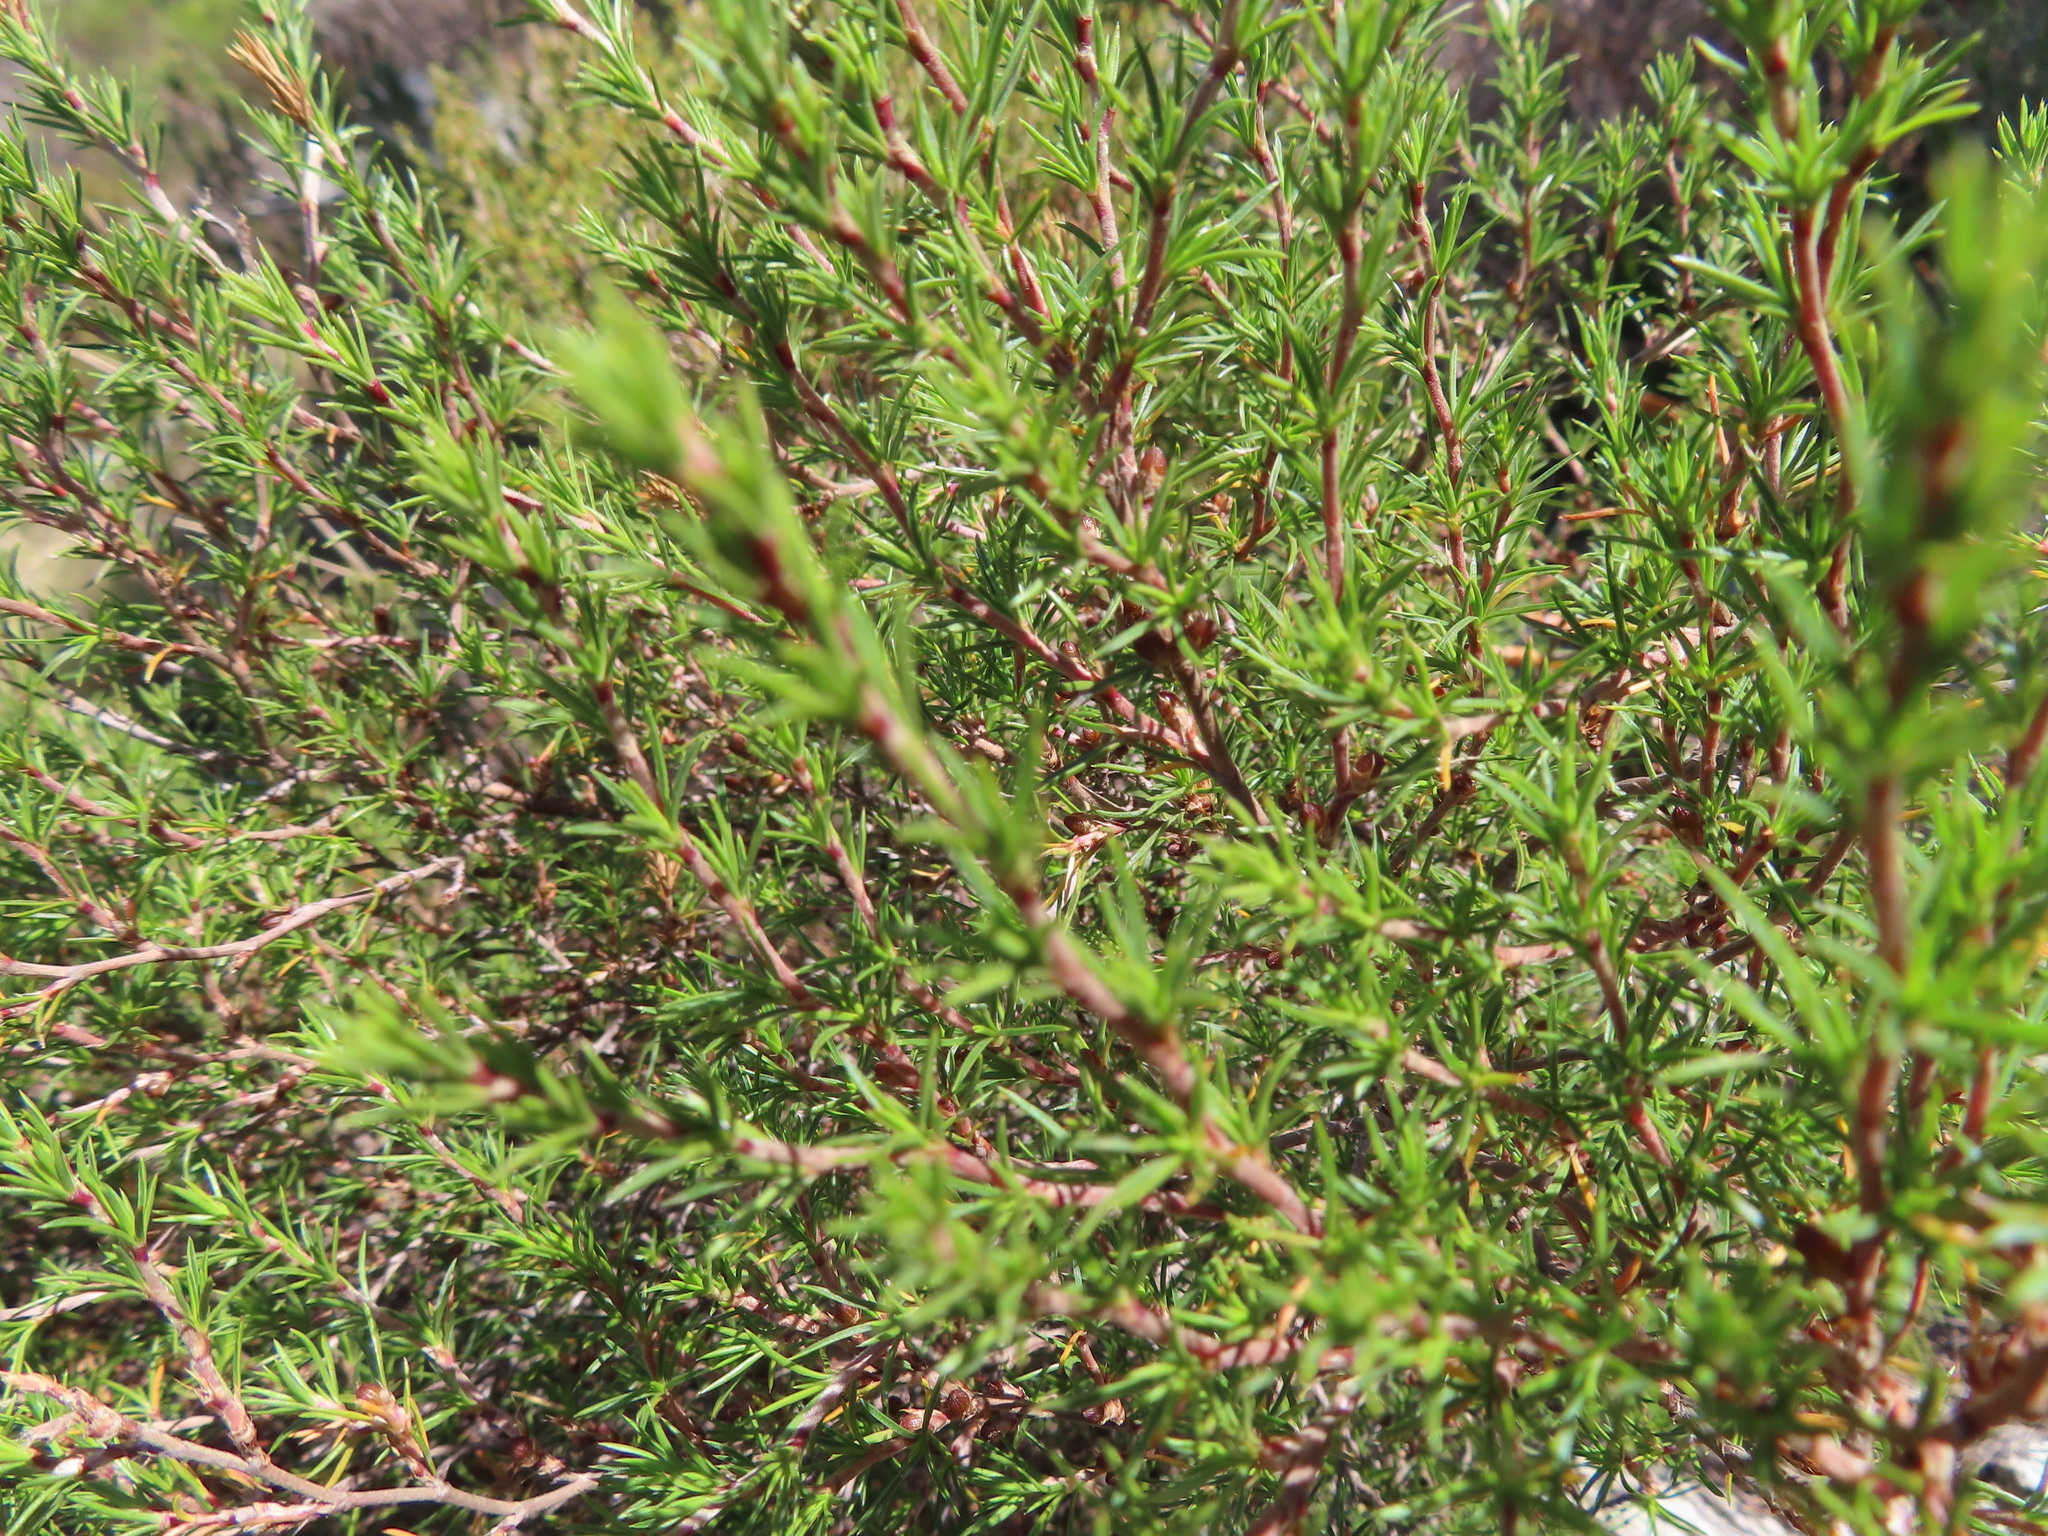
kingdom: Plantae
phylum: Tracheophyta
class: Magnoliopsida
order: Rosales
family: Rosaceae
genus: Cliffortia
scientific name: Cliffortia atrata
